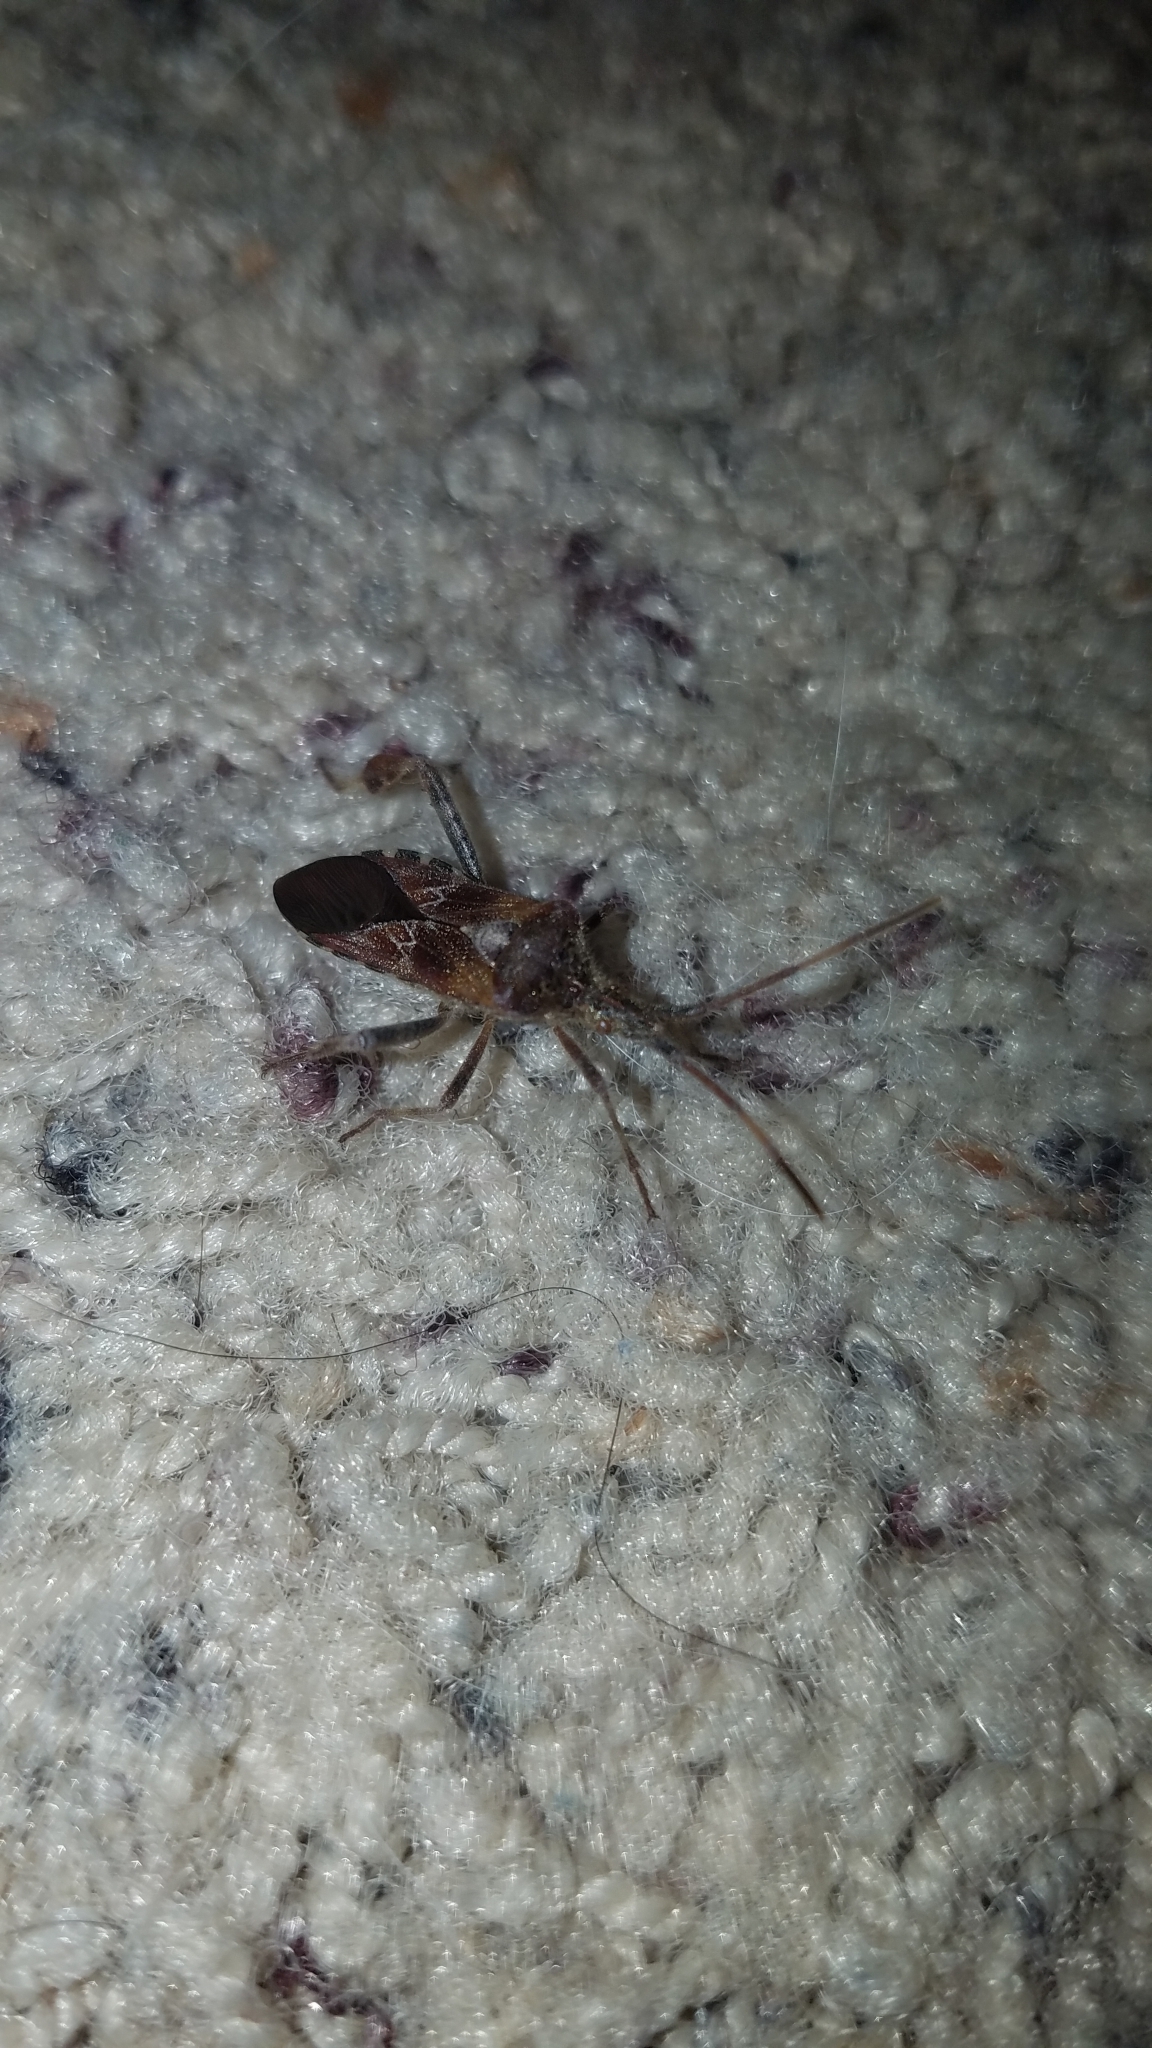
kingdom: Animalia
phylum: Arthropoda
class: Insecta
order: Hemiptera
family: Coreidae
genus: Leptoglossus
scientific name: Leptoglossus occidentalis
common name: Western conifer-seed bug
